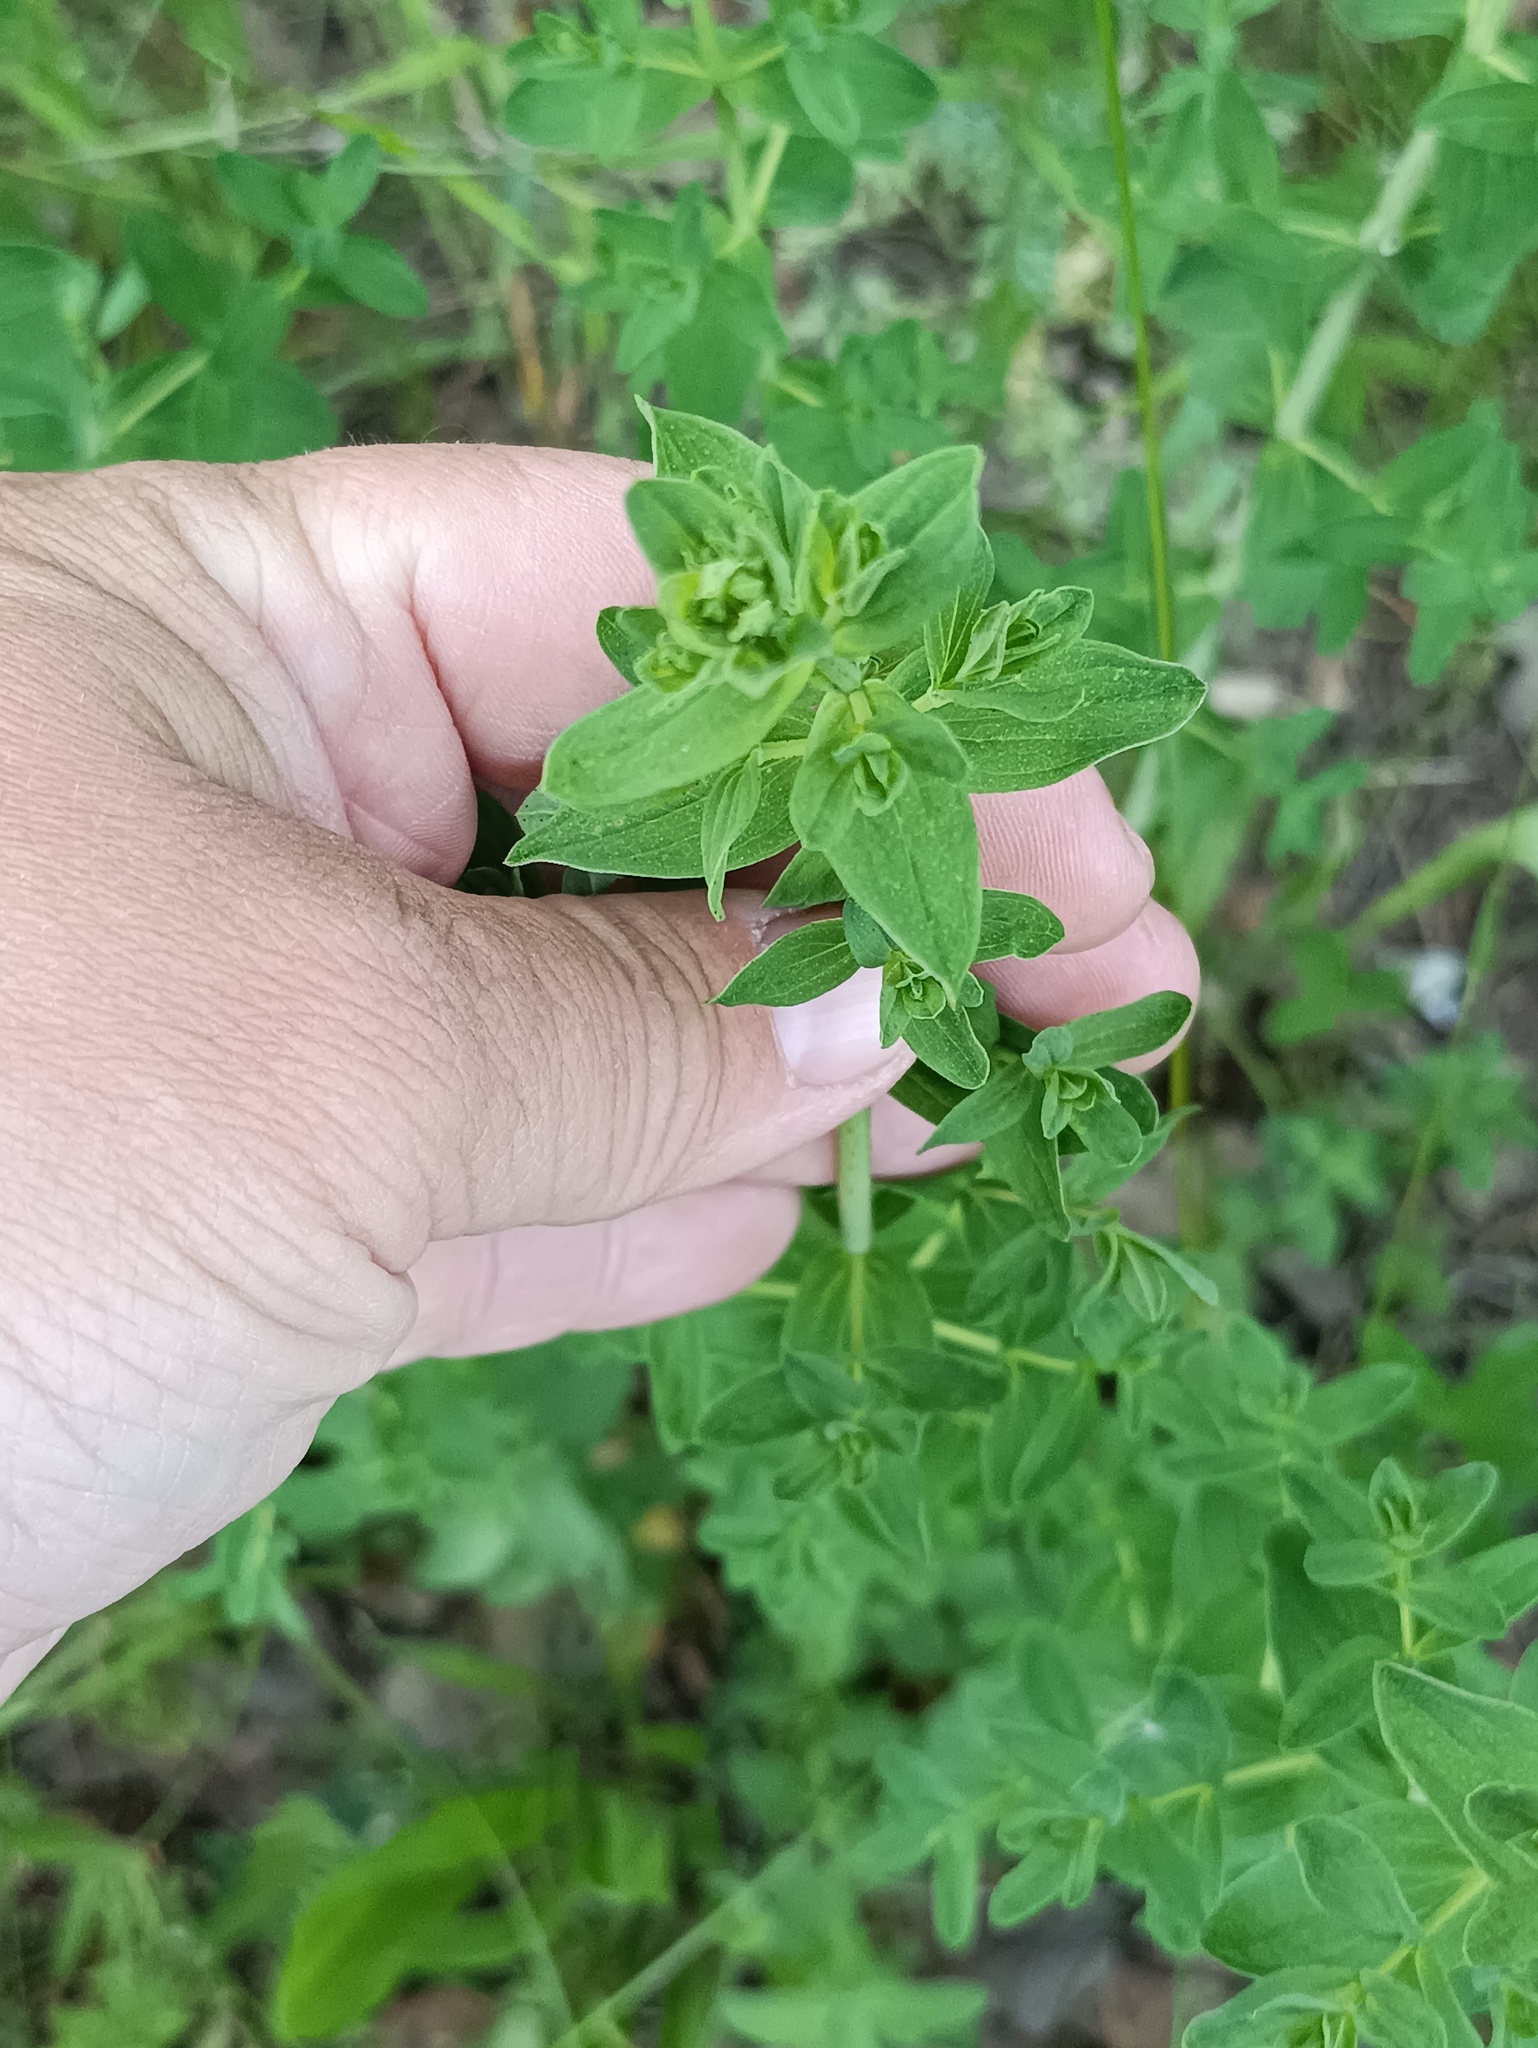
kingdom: Plantae
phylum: Tracheophyta
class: Magnoliopsida
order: Malpighiales
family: Hypericaceae
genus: Hypericum
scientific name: Hypericum perforatum
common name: Common st. johnswort
